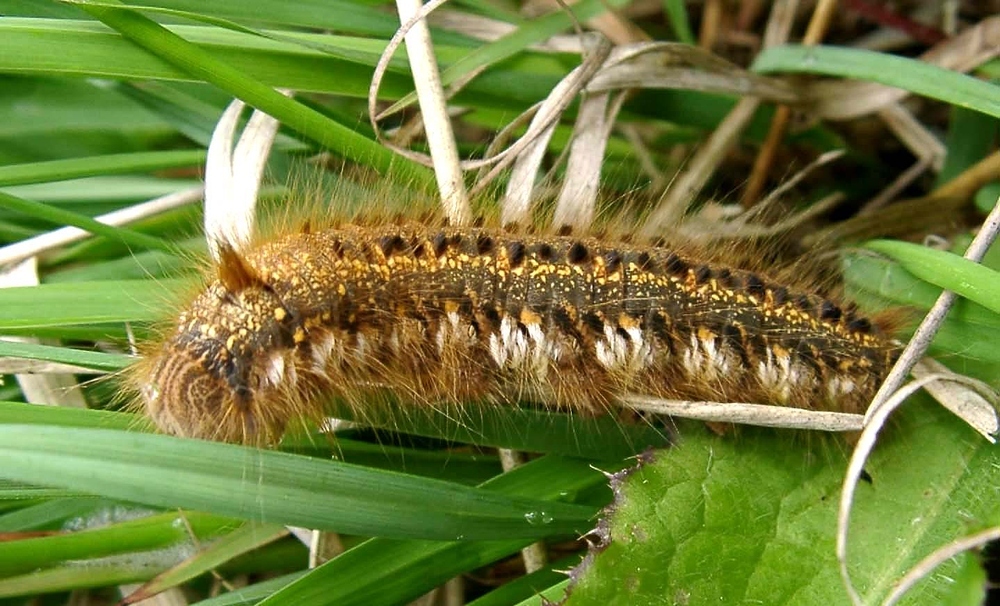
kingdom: Animalia
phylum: Arthropoda
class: Insecta
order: Lepidoptera
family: Lasiocampidae
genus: Euthrix
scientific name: Euthrix potatoria
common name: Drinker
